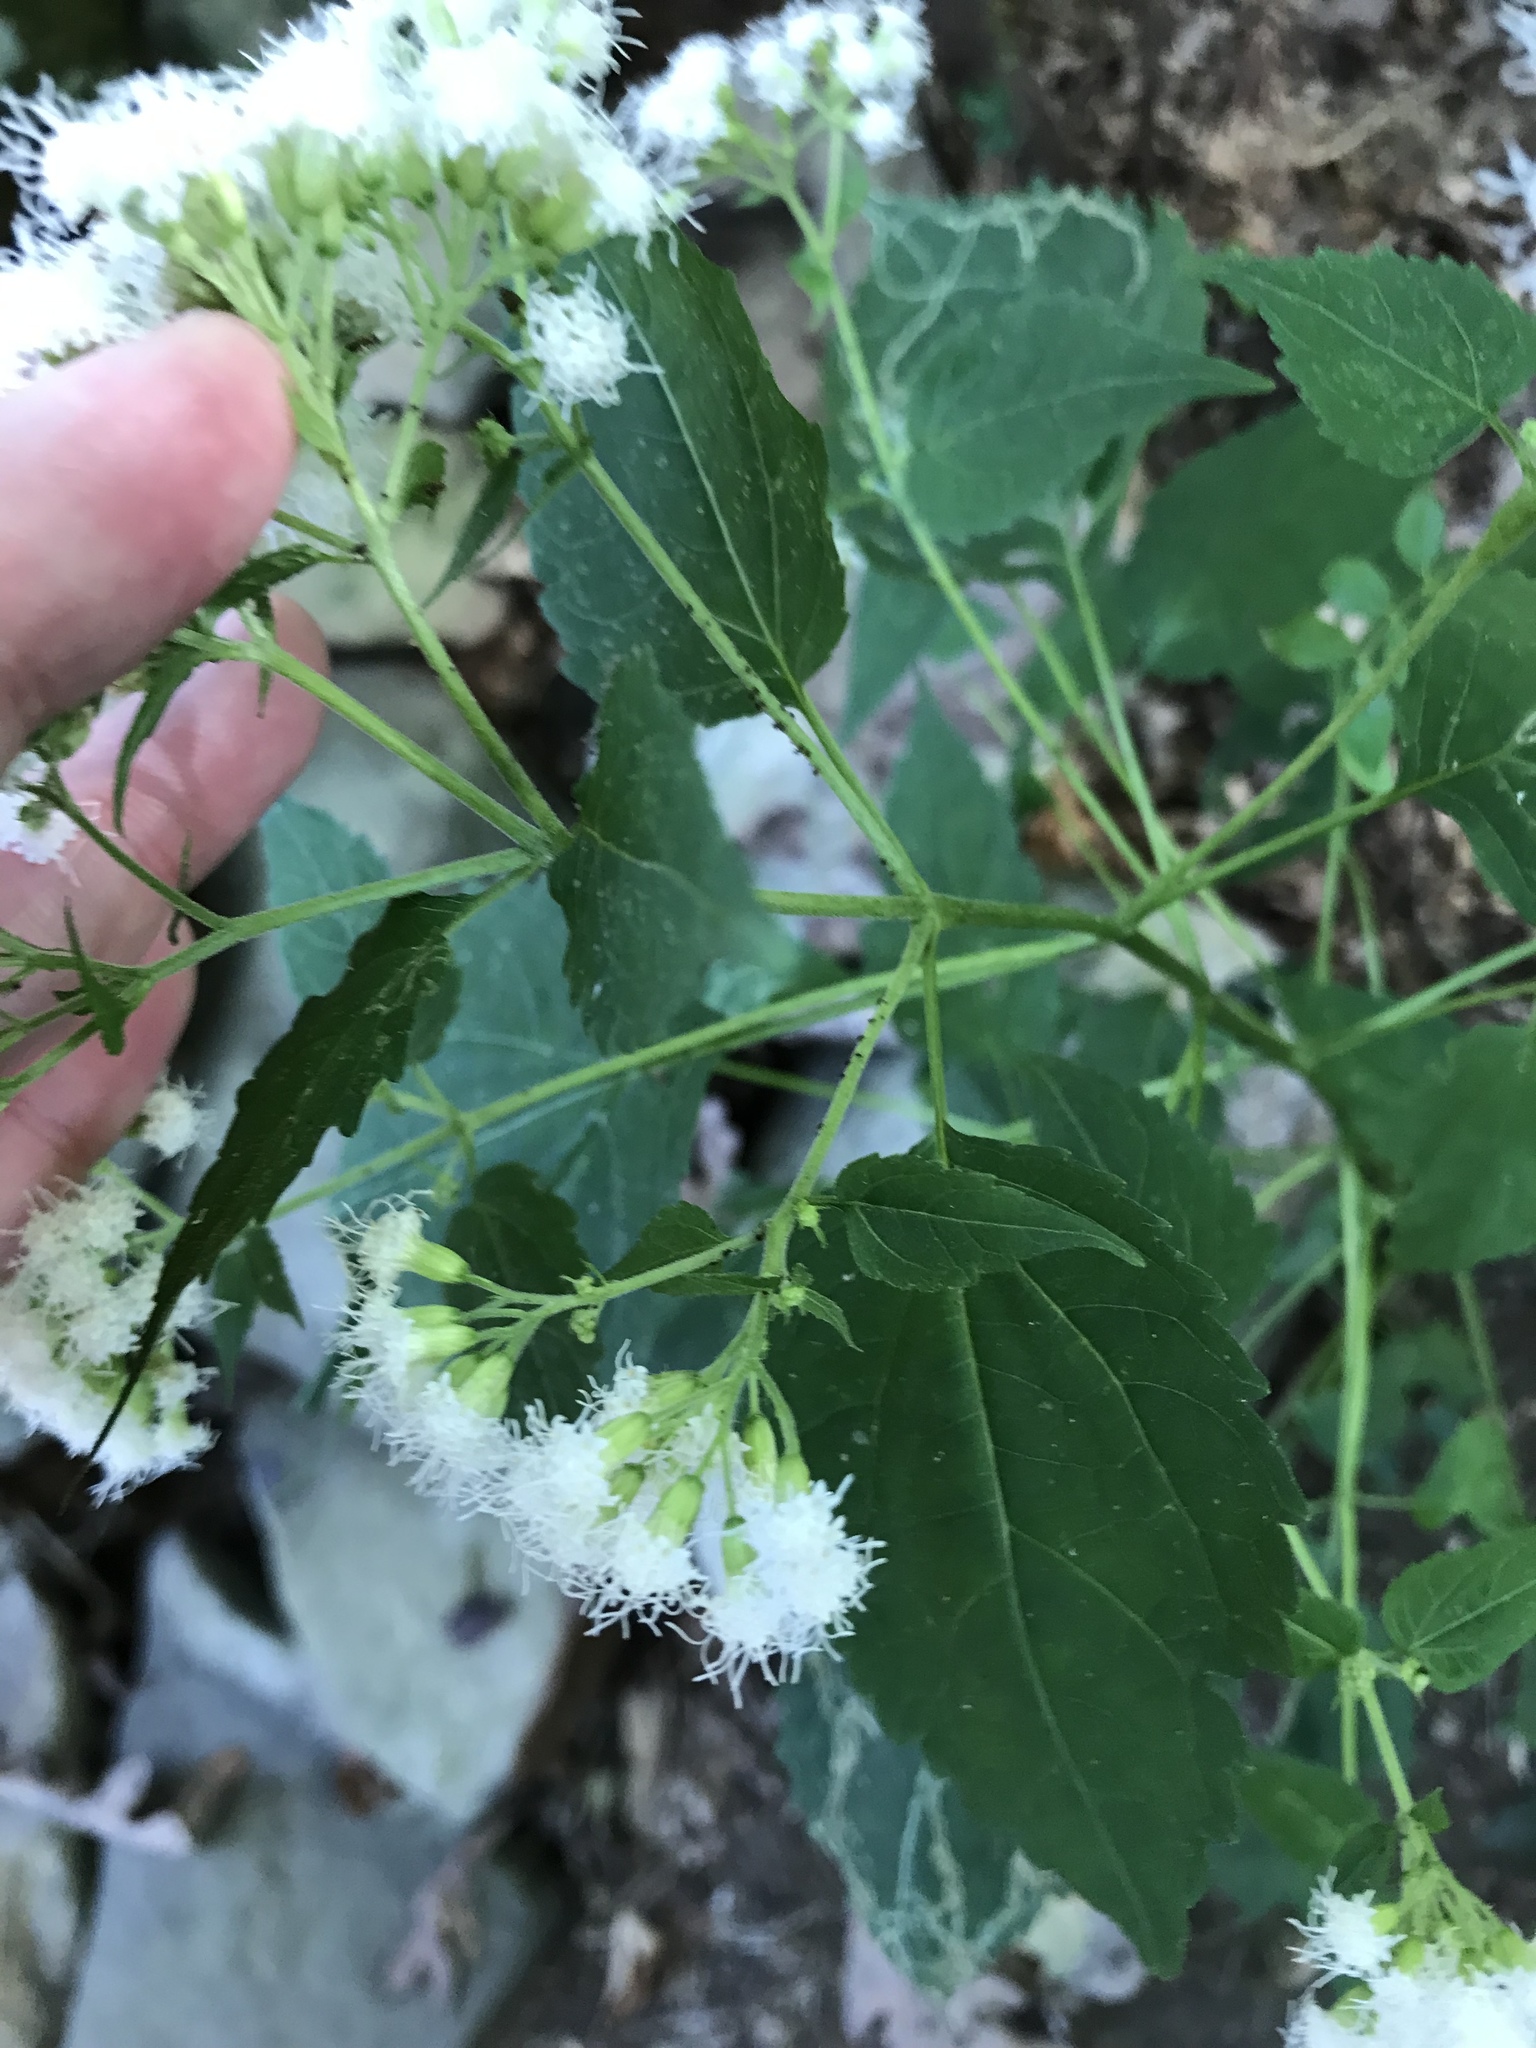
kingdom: Plantae
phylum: Tracheophyta
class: Magnoliopsida
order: Asterales
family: Asteraceae
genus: Ageratina
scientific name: Ageratina altissima
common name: White snakeroot
